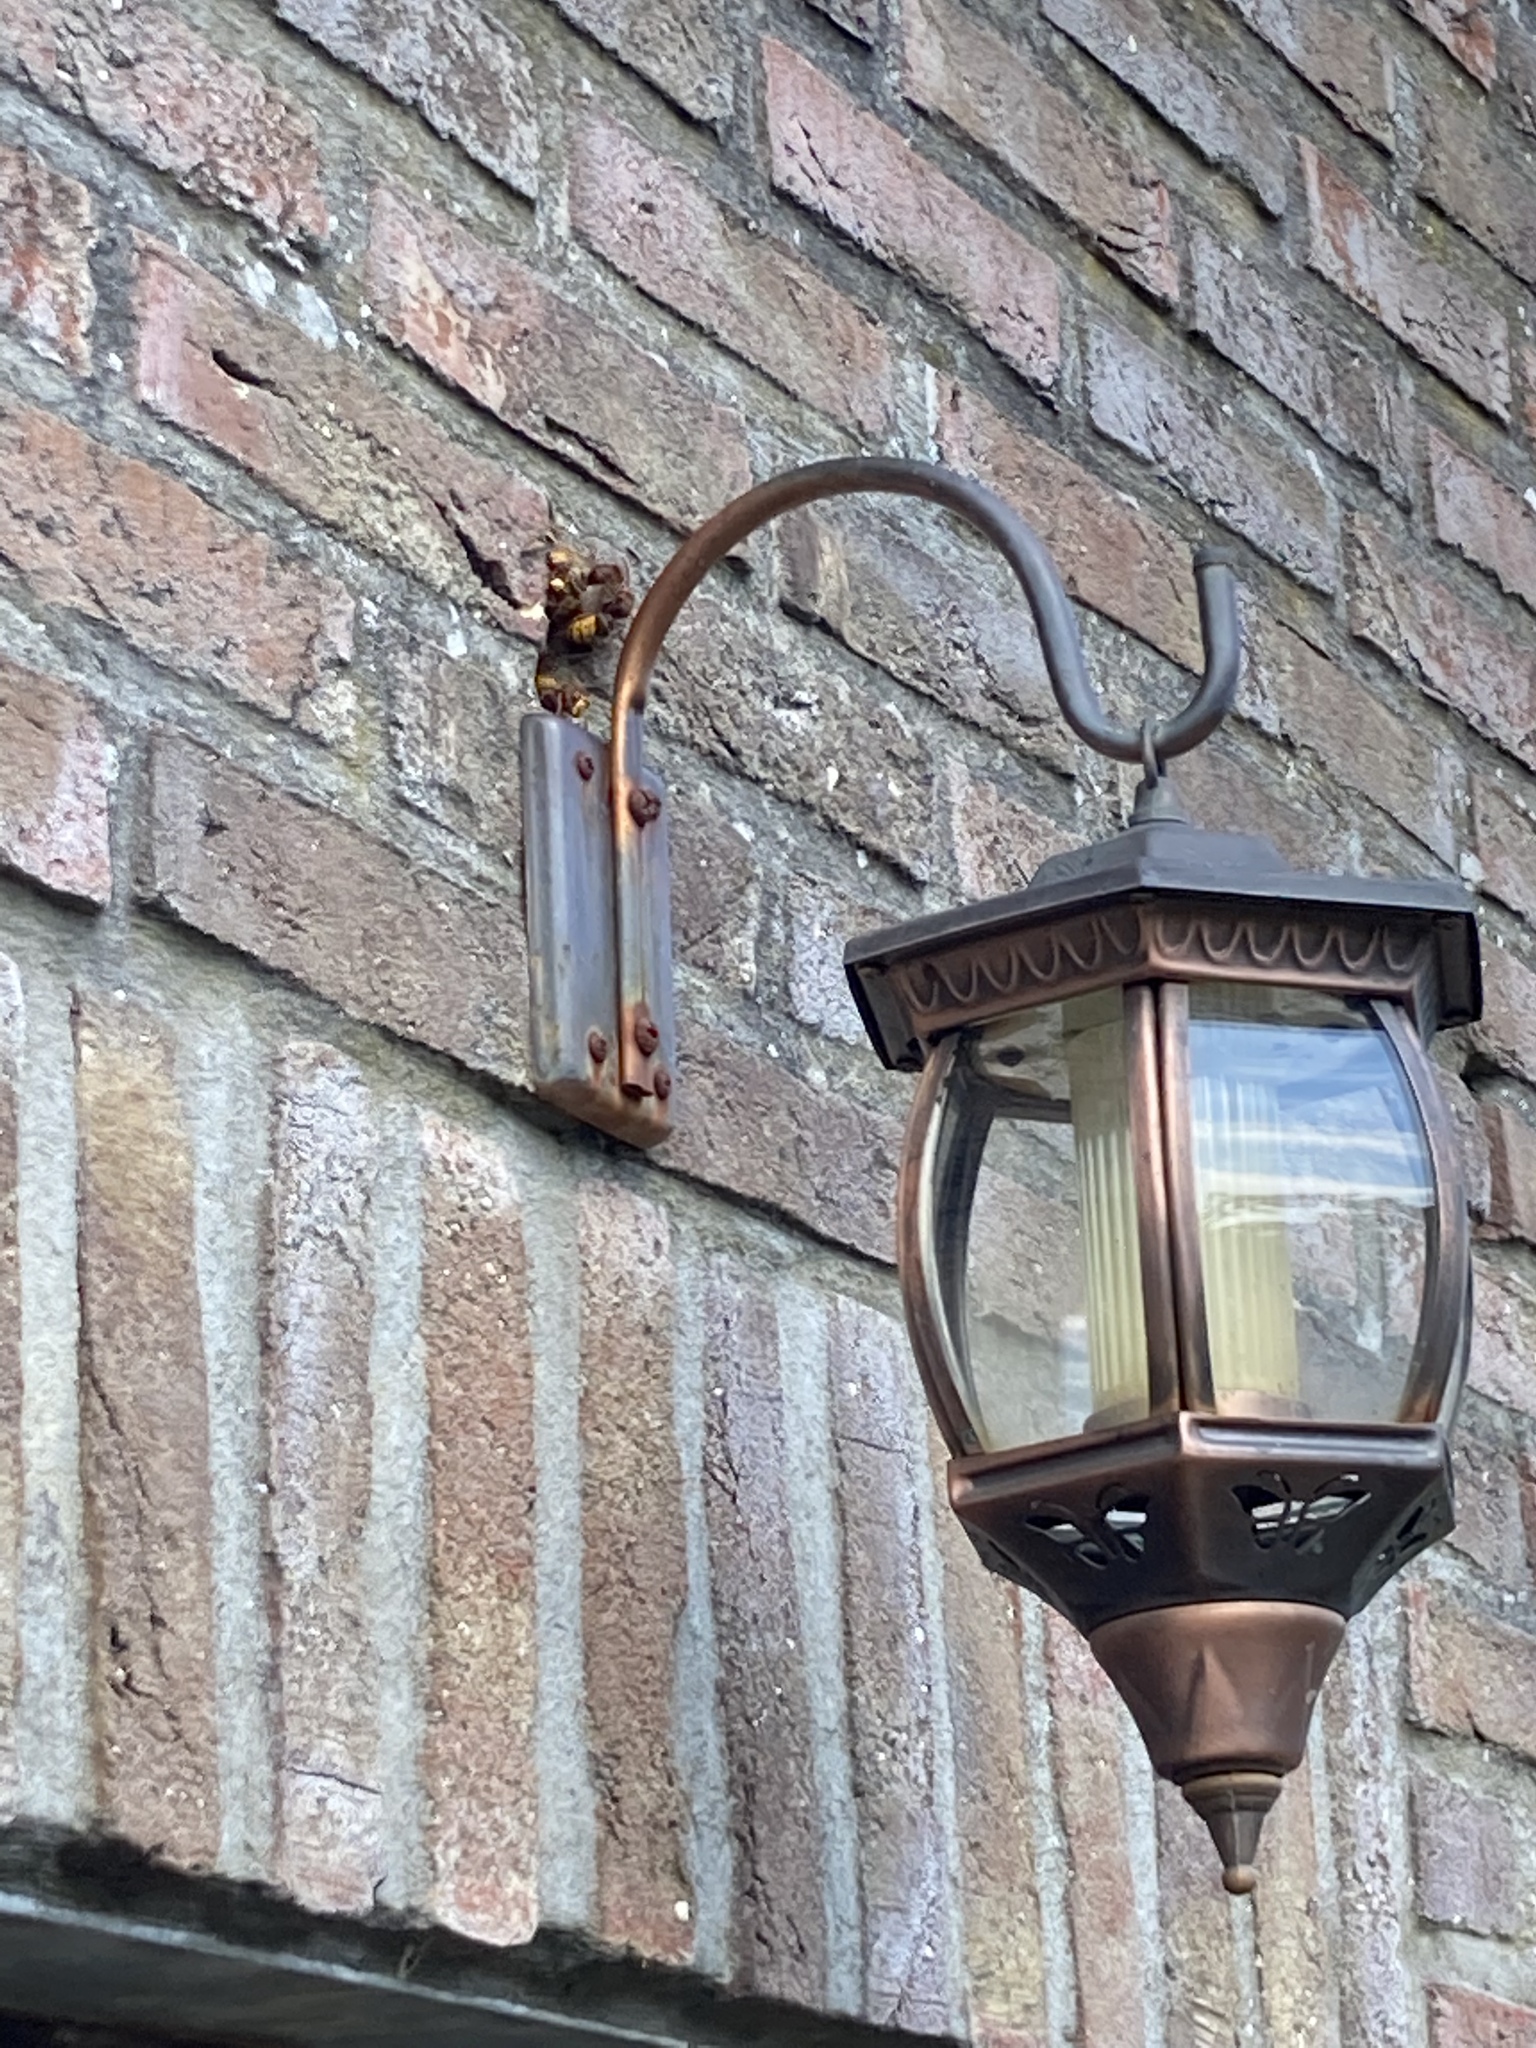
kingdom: Animalia
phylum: Arthropoda
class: Insecta
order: Hymenoptera
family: Vespidae
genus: Vespa
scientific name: Vespa crabro
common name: Hornet
